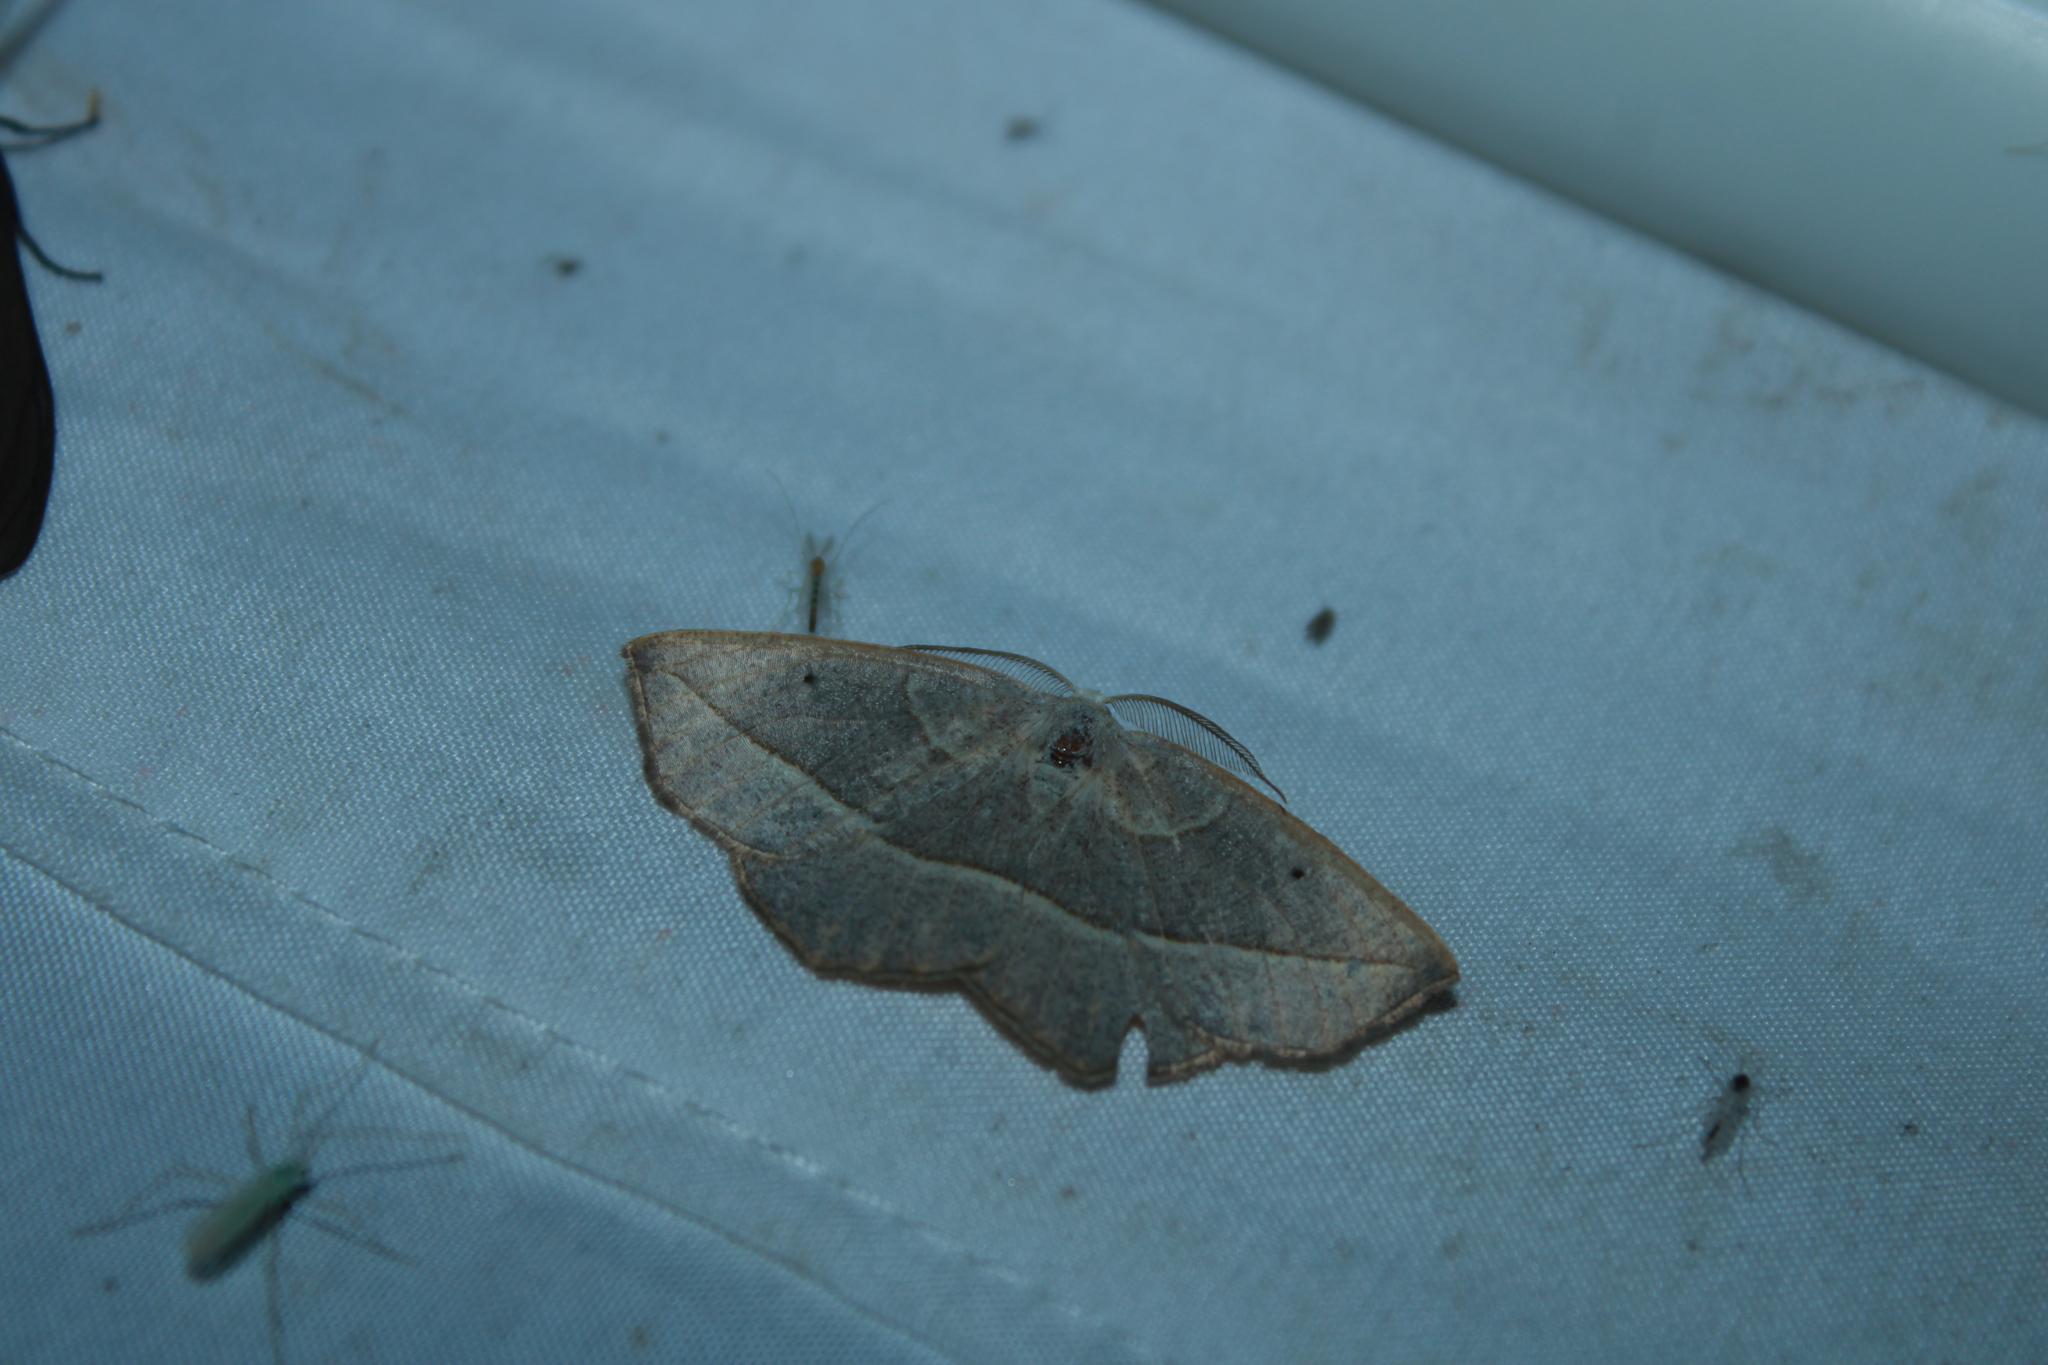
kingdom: Animalia
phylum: Arthropoda
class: Insecta
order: Lepidoptera
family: Geometridae
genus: Eusarca
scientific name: Eusarca confusaria
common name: Confused eusarca
